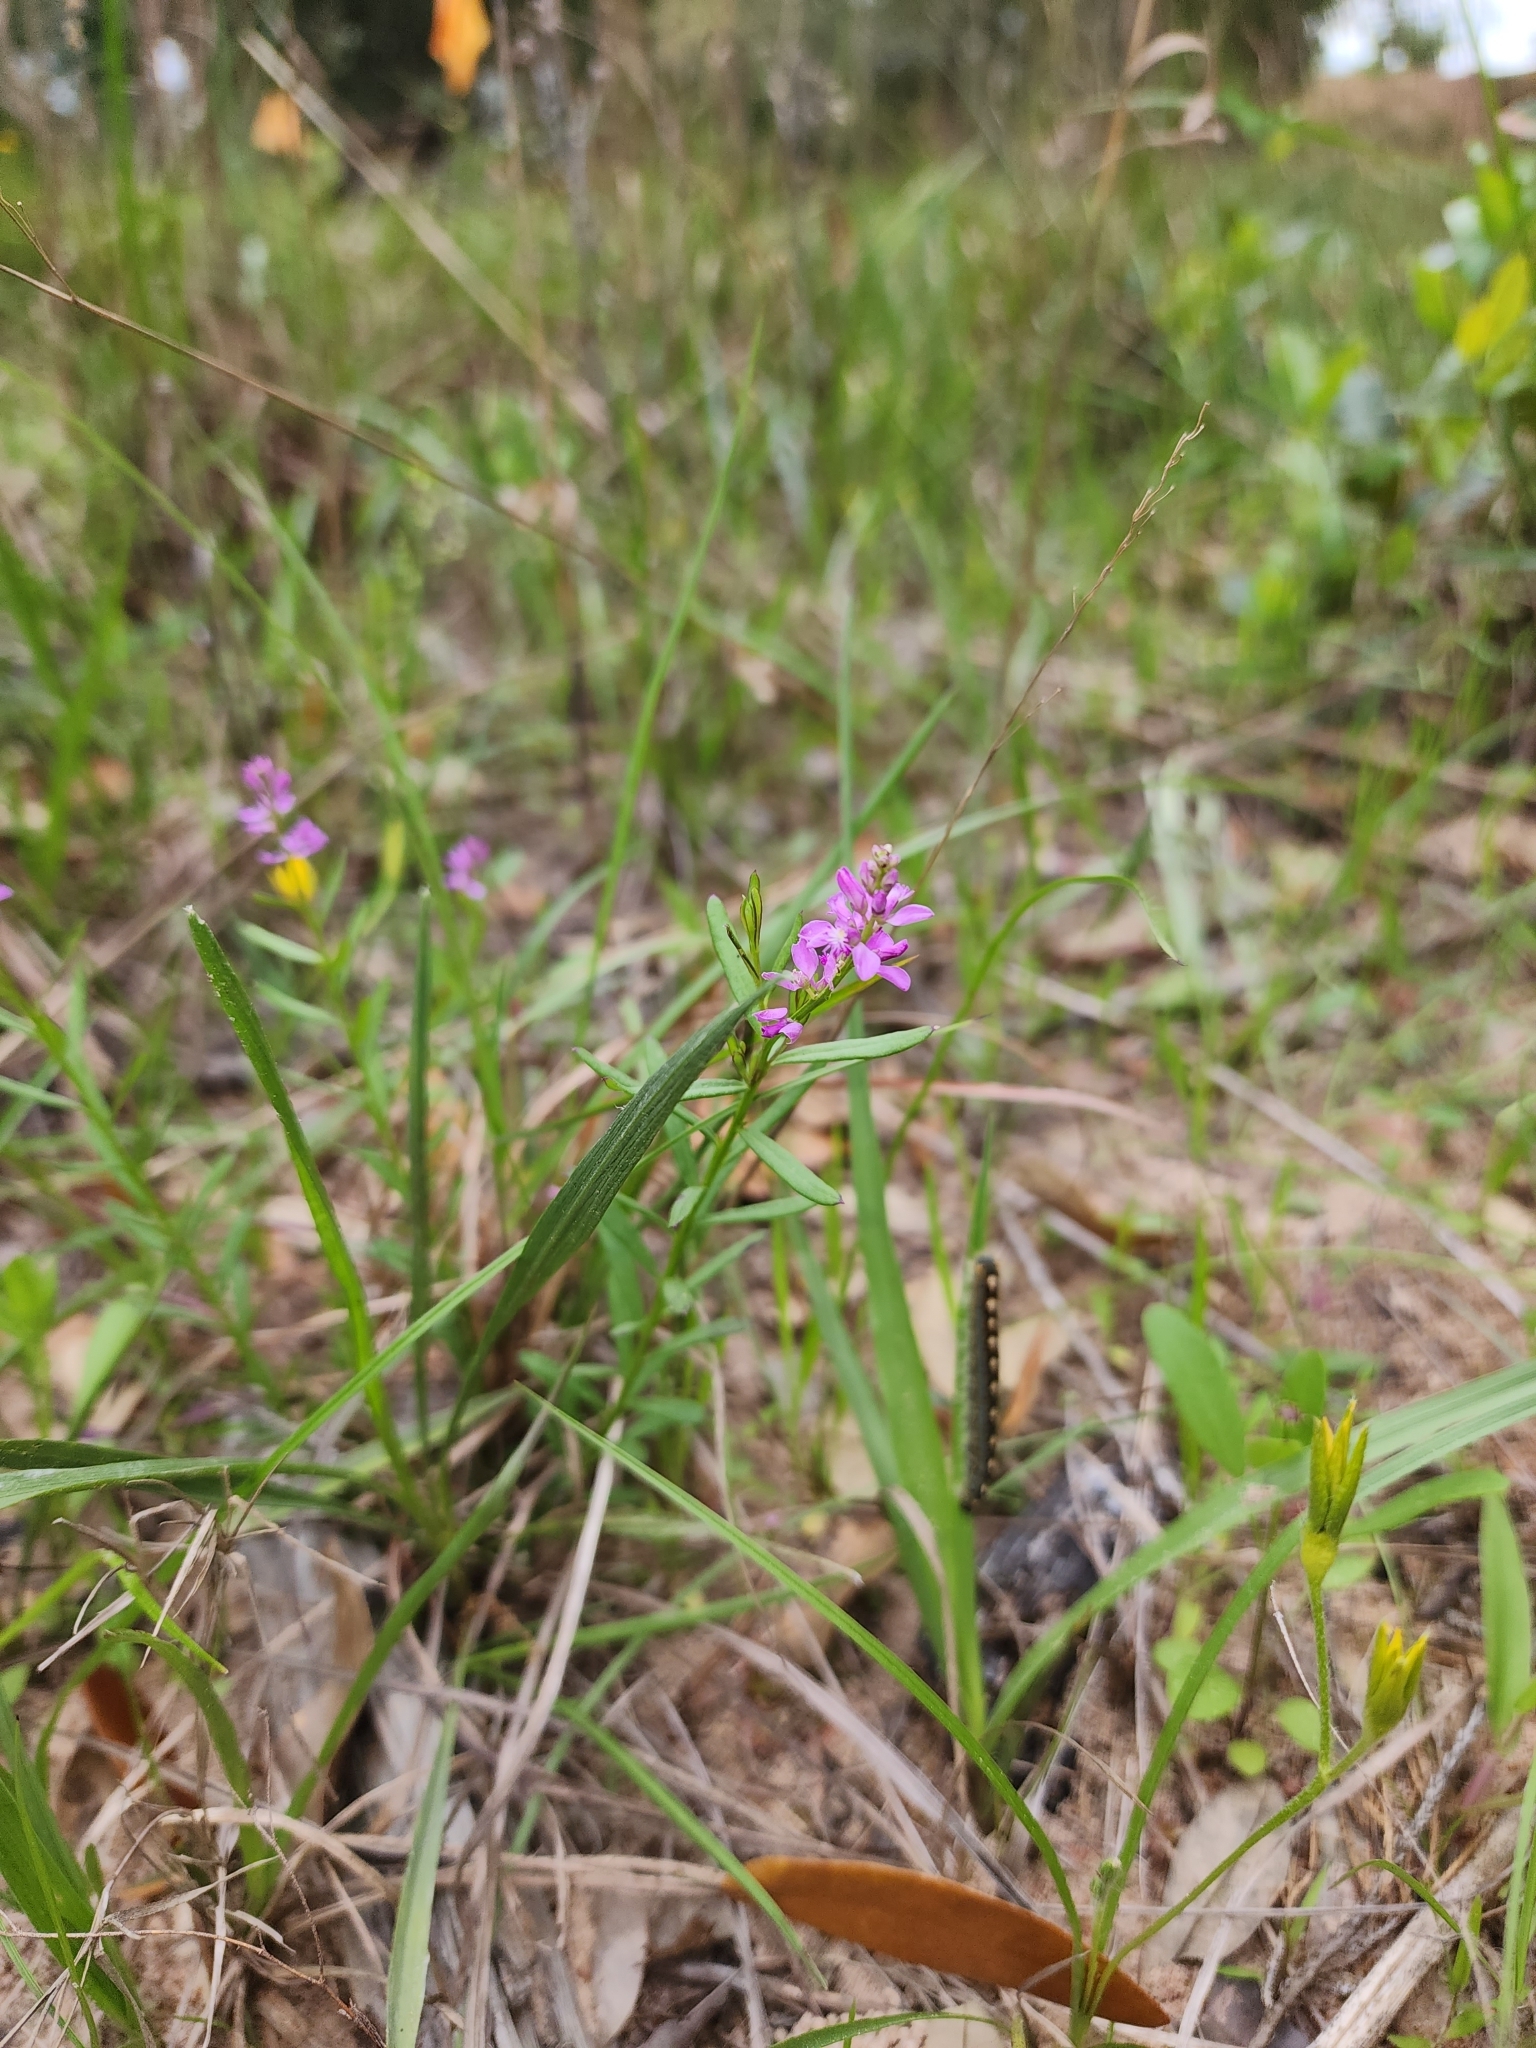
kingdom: Plantae
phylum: Tracheophyta
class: Magnoliopsida
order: Fabales
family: Polygalaceae
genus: Polygala
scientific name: Polygala polygama
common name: Bitter milkwort
